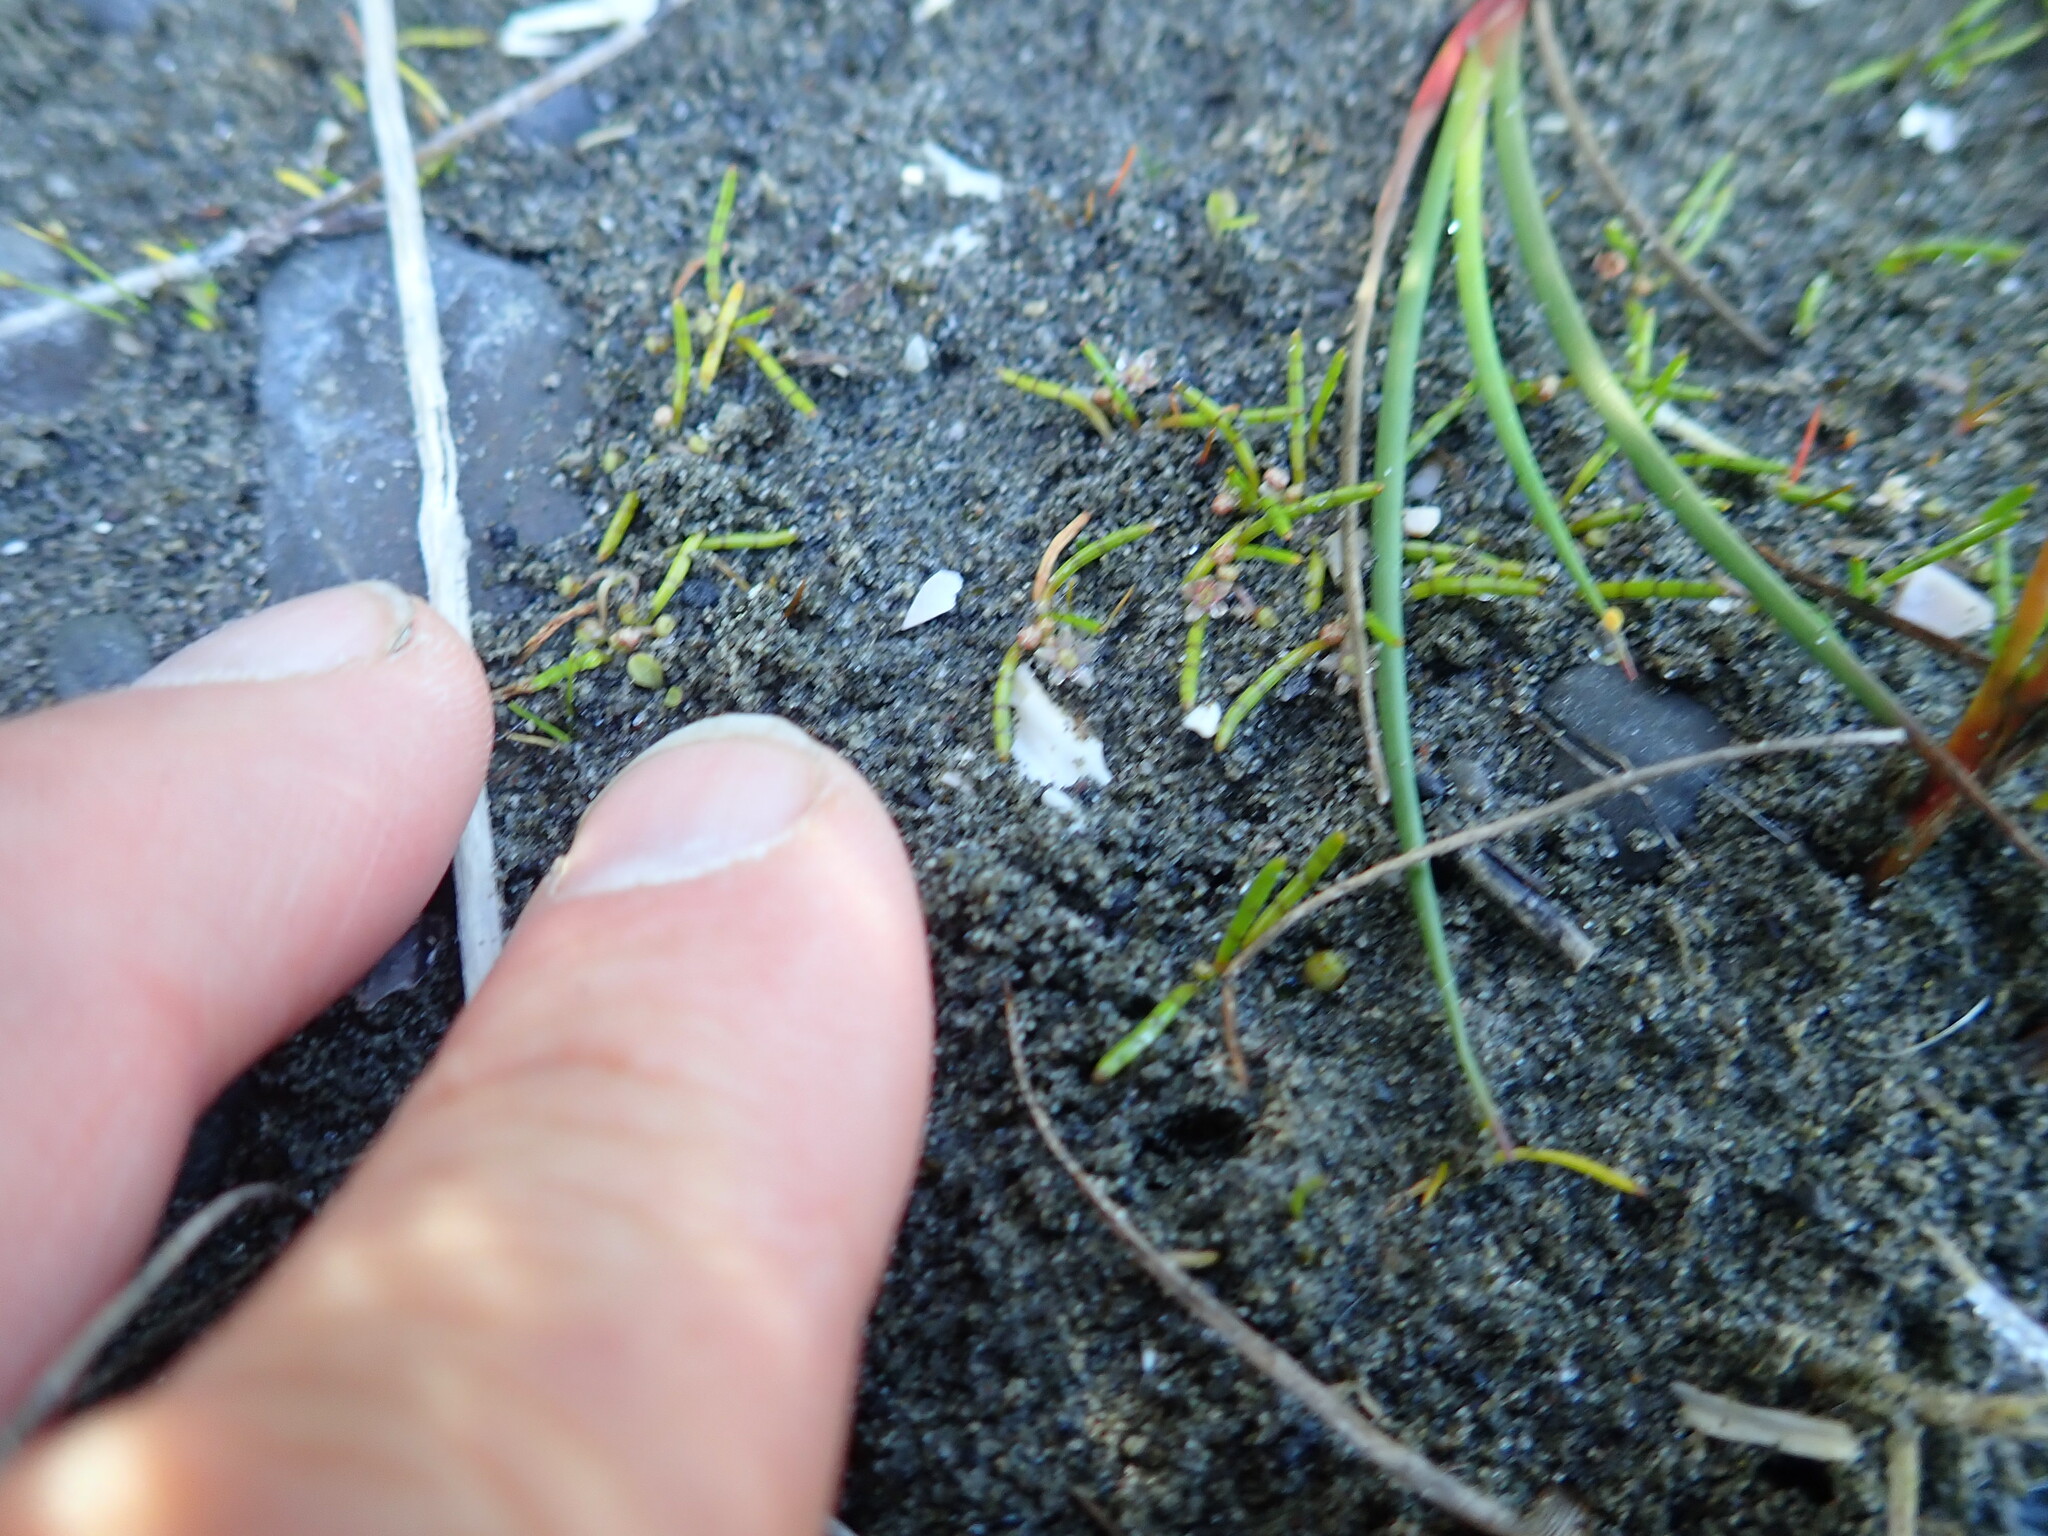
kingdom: Plantae
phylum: Tracheophyta
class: Magnoliopsida
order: Apiales
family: Apiaceae
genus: Lilaeopsis
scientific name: Lilaeopsis novae-zelandiae
